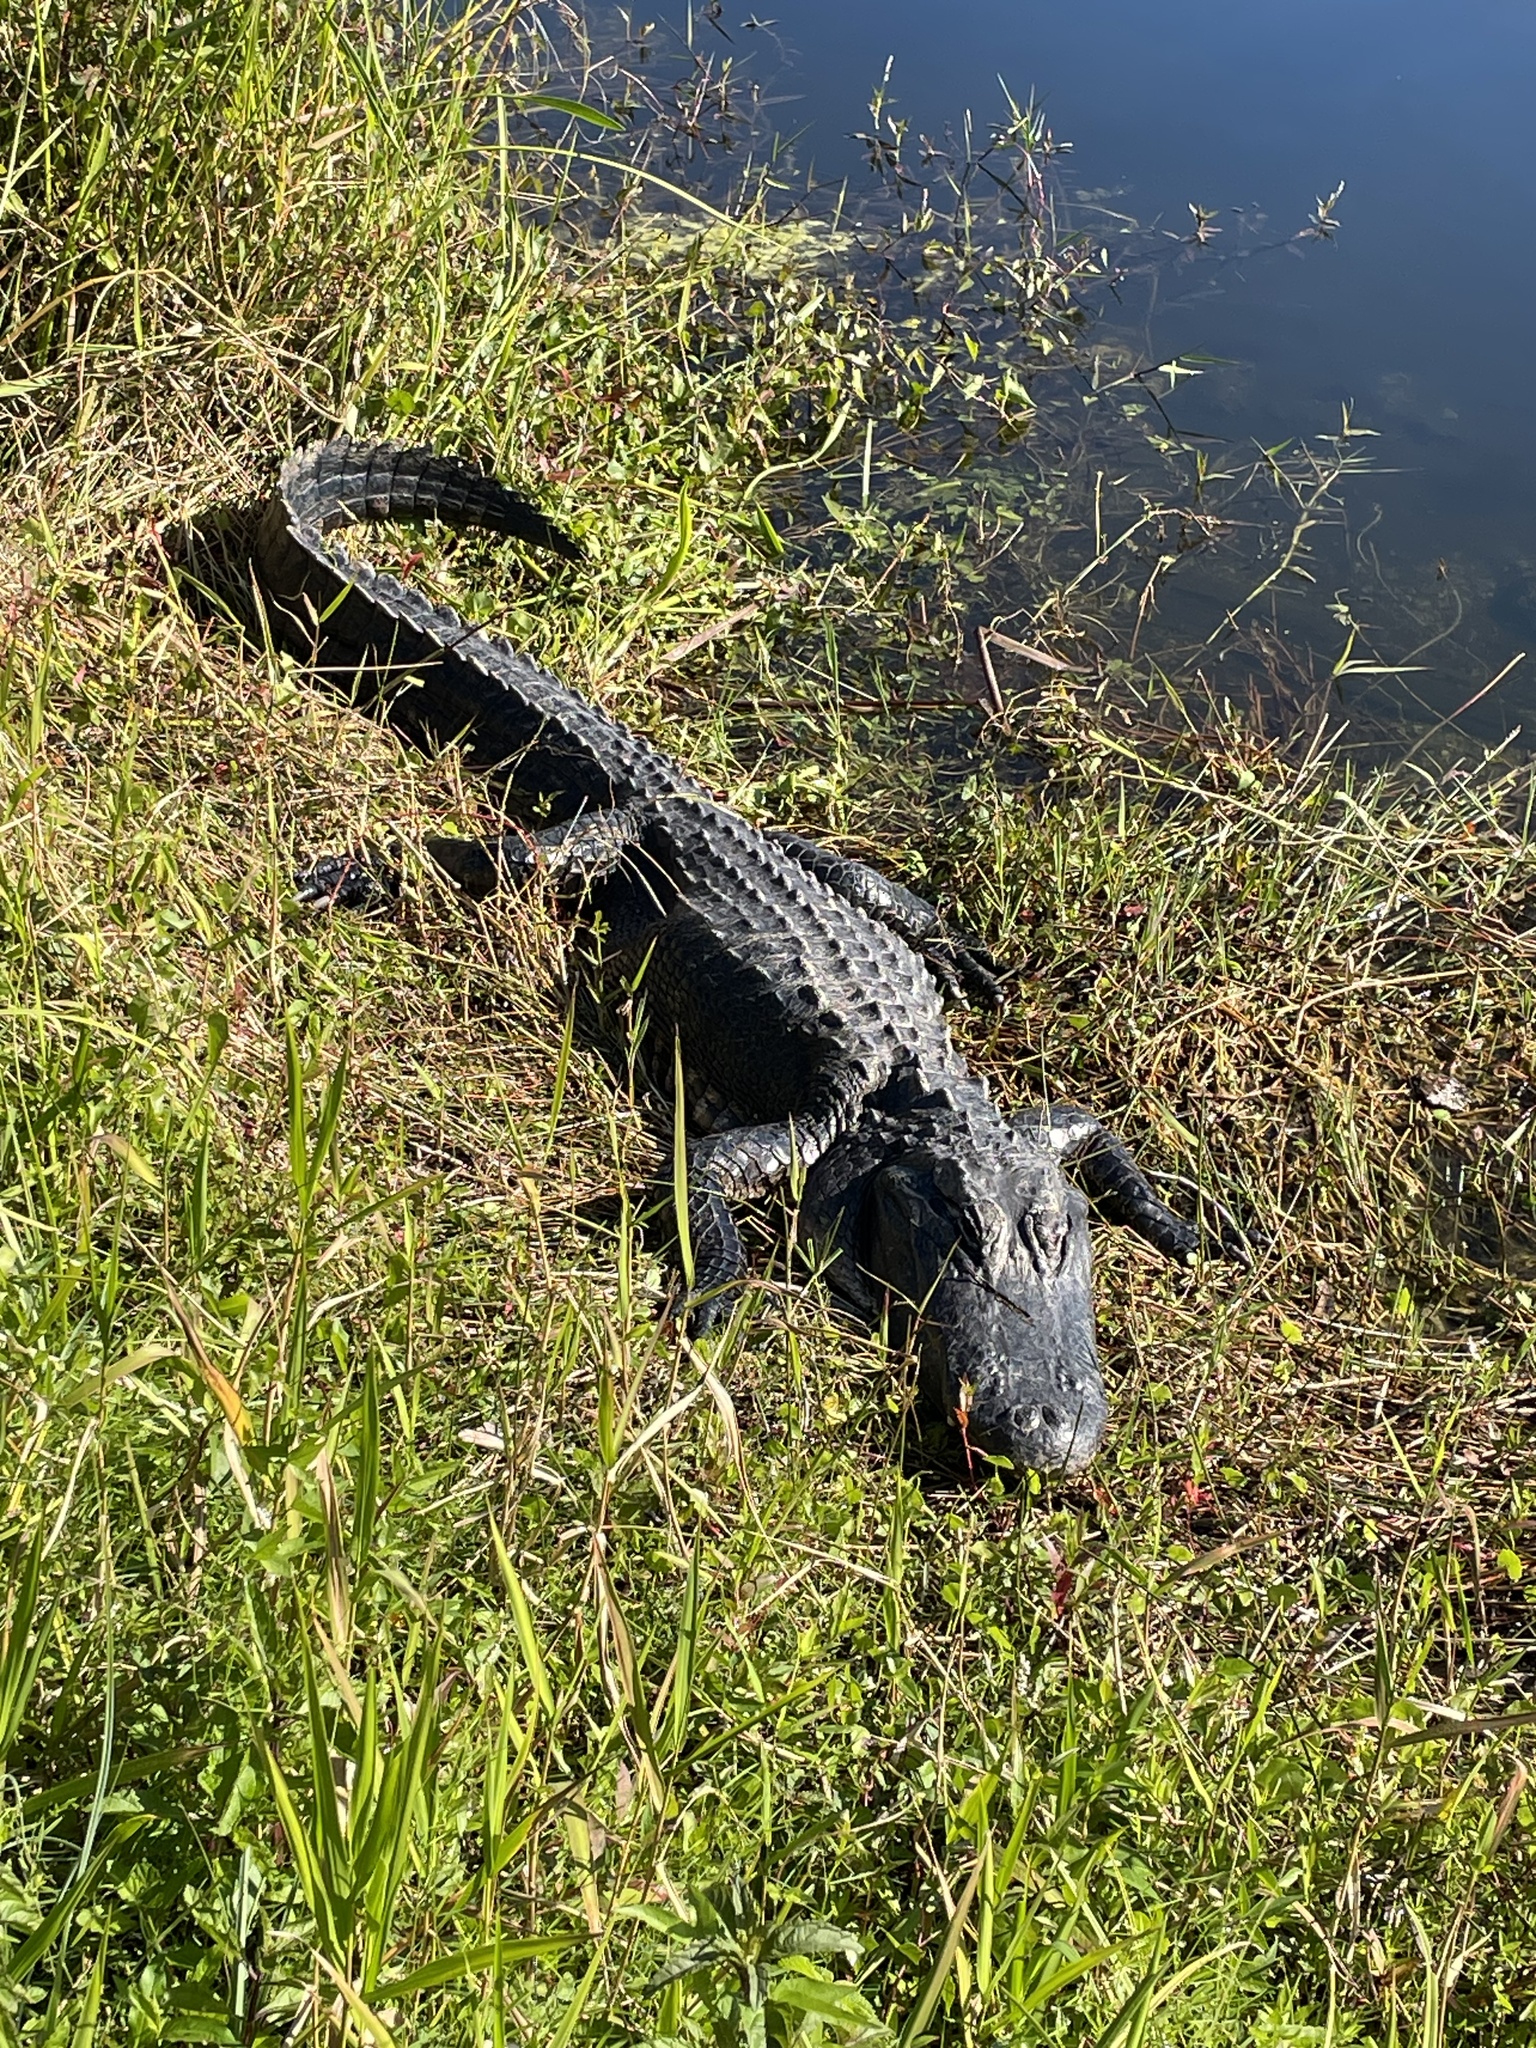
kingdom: Animalia
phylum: Chordata
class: Crocodylia
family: Alligatoridae
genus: Alligator
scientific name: Alligator mississippiensis
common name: American alligator
